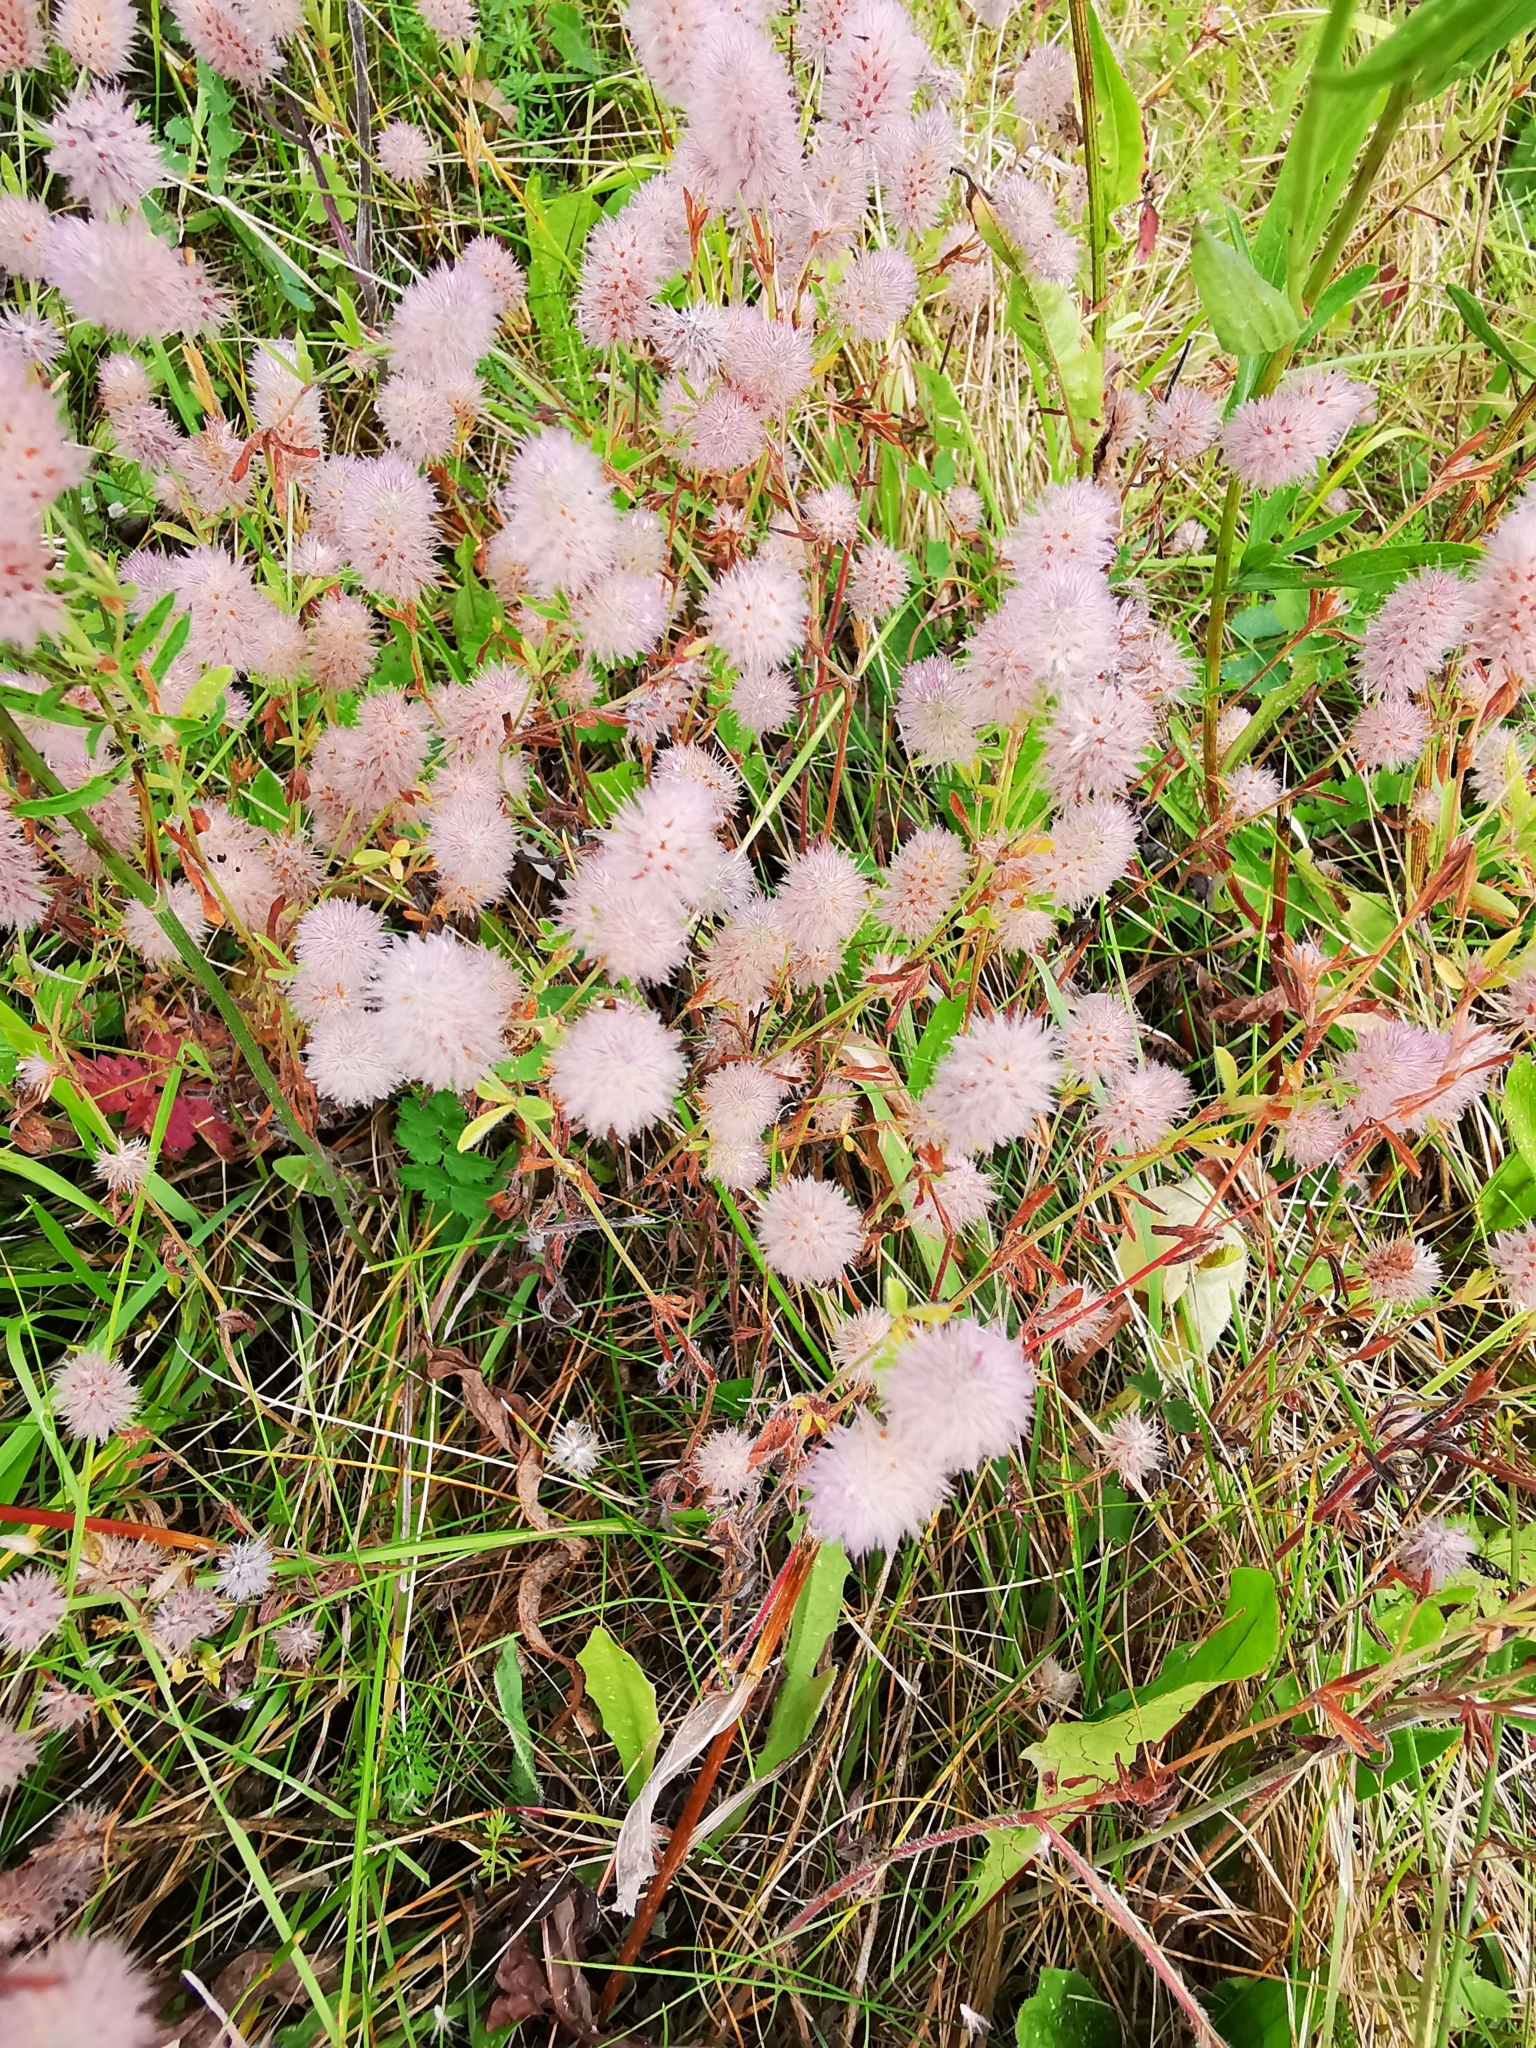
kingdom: Plantae
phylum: Tracheophyta
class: Magnoliopsida
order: Fabales
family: Fabaceae
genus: Trifolium
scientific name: Trifolium arvense
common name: Hare's-foot clover
